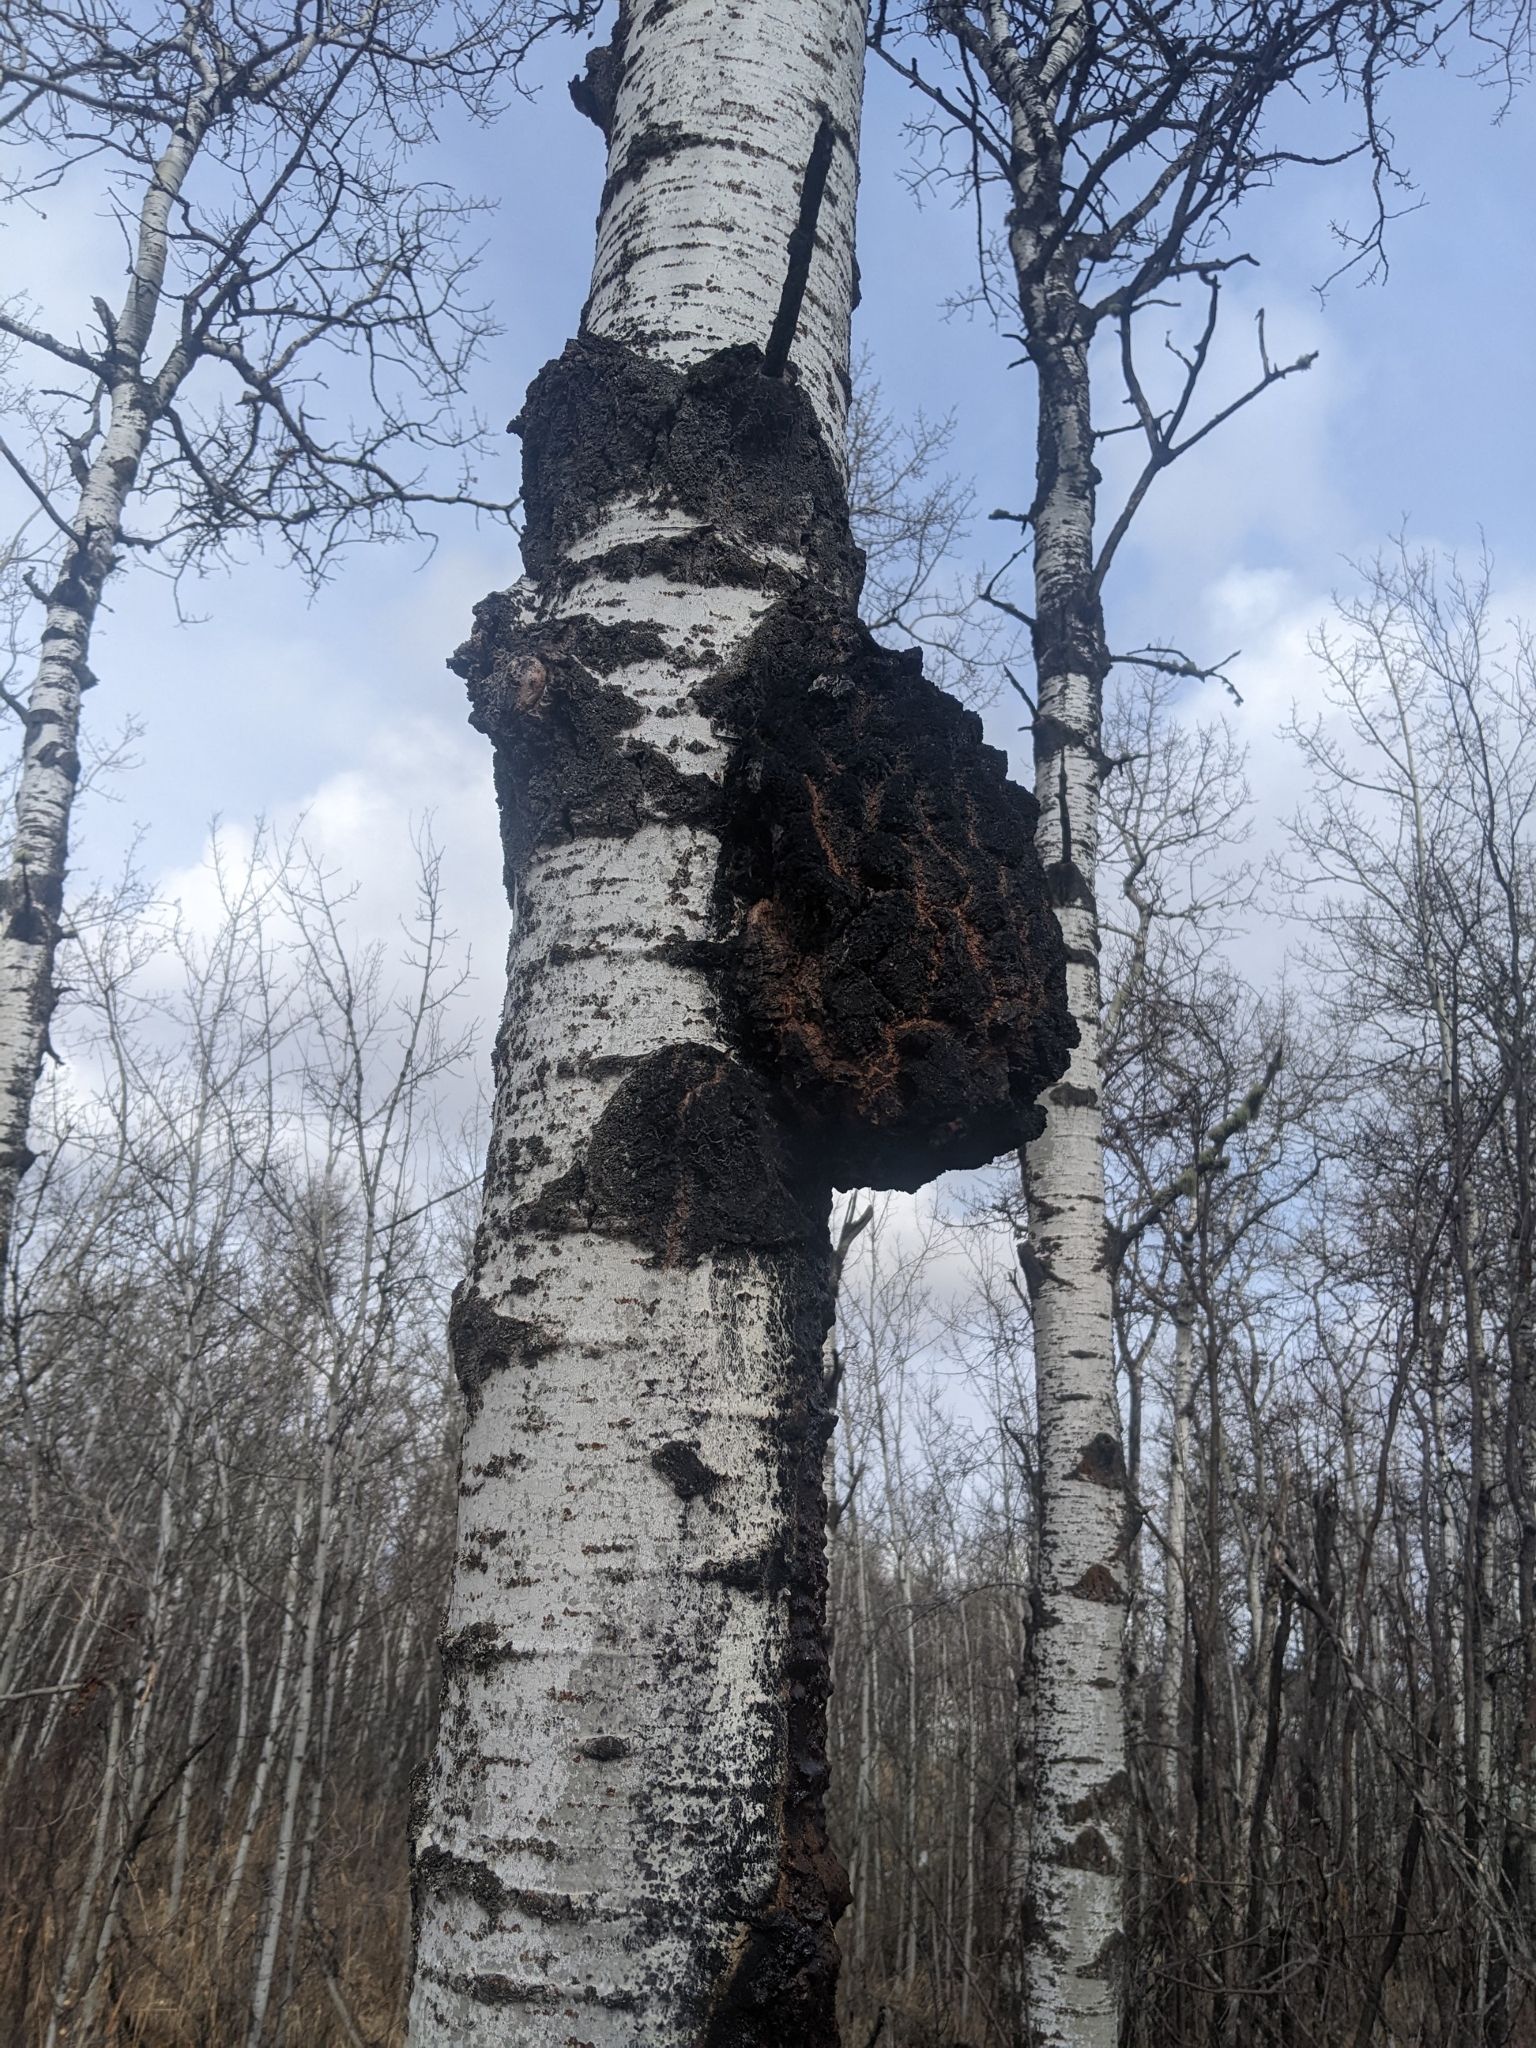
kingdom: Fungi
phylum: Ascomycota
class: Dothideomycetes
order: Botryosphaeriales
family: Botryosphaeriaceae
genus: Diplodia
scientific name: Diplodia tumefaciens
